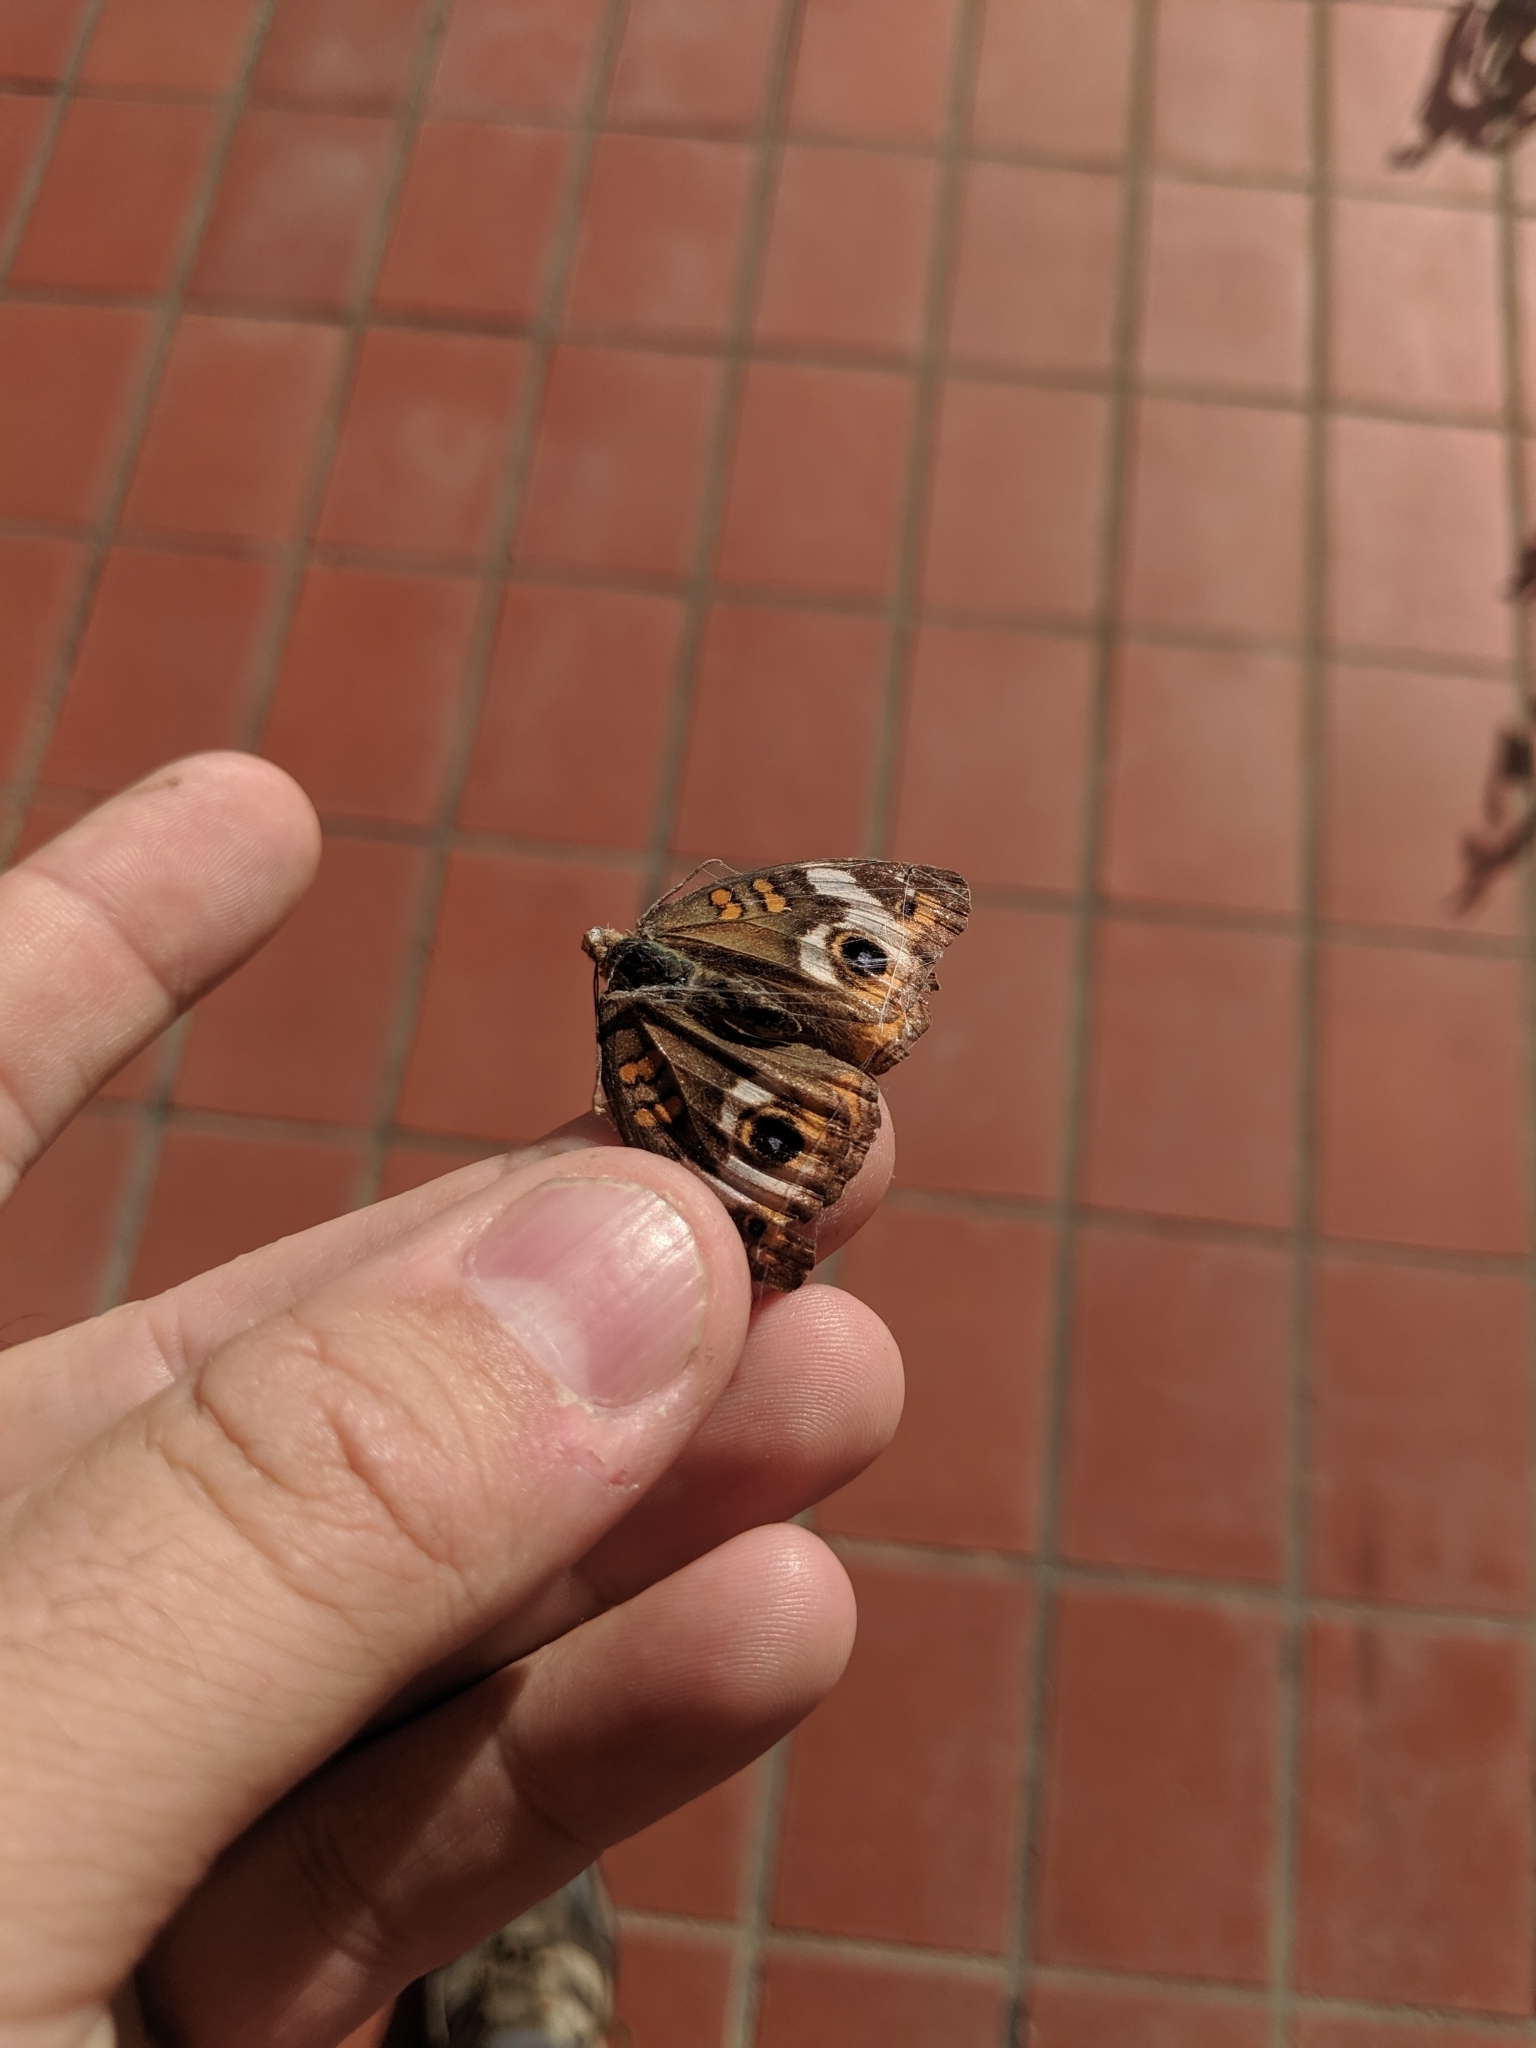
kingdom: Animalia
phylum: Arthropoda
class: Insecta
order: Lepidoptera
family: Nymphalidae
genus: Junonia
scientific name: Junonia coenia
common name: Common buckeye
